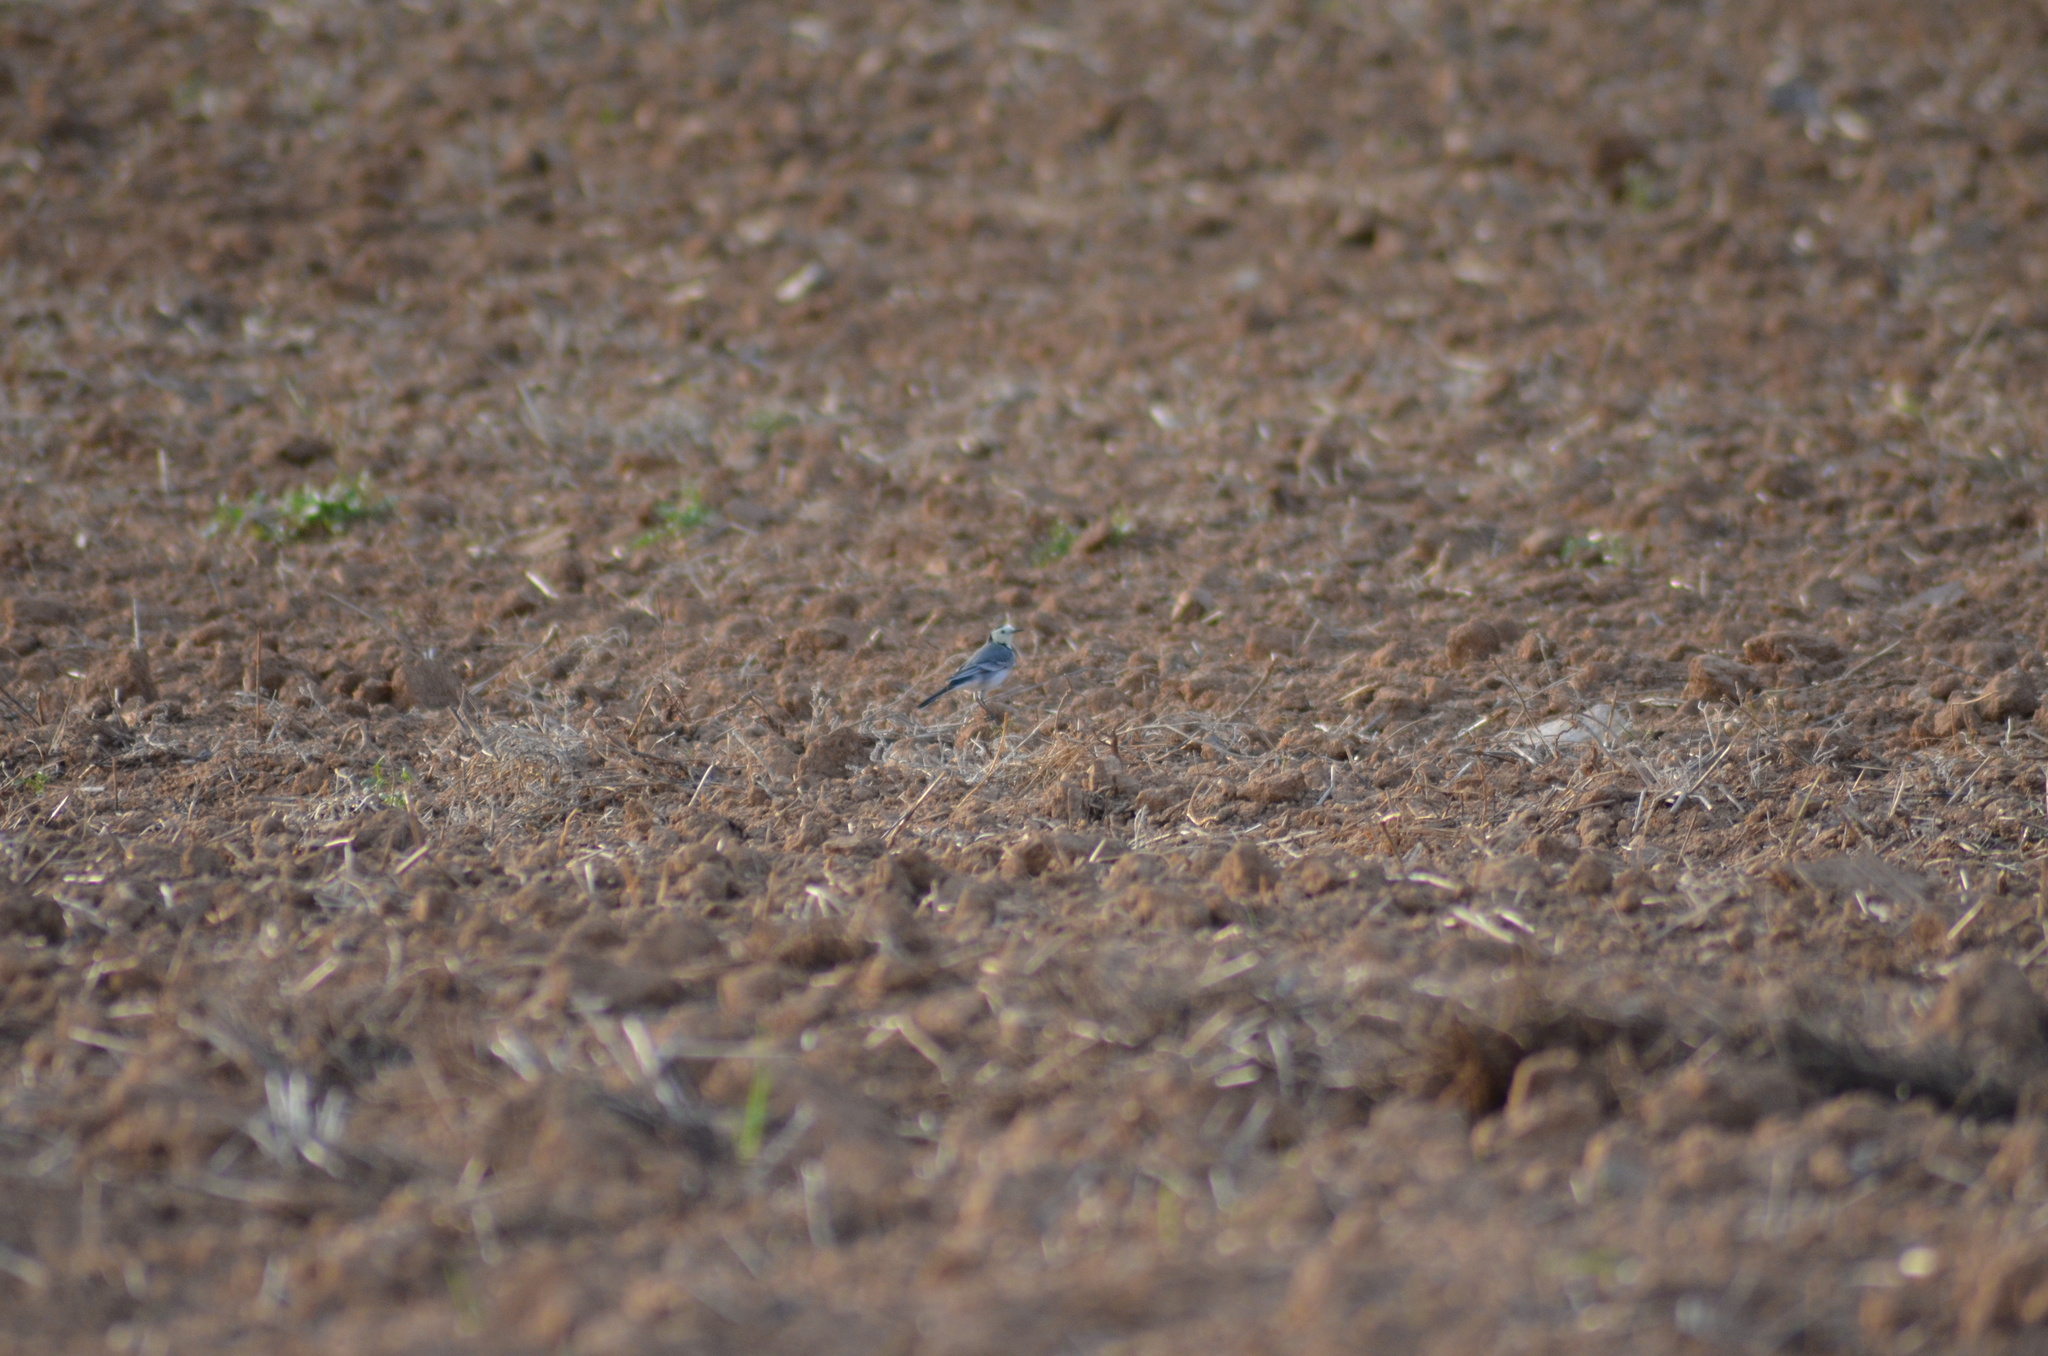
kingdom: Animalia
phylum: Chordata
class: Aves
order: Passeriformes
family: Motacillidae
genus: Motacilla
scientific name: Motacilla alba
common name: White wagtail
